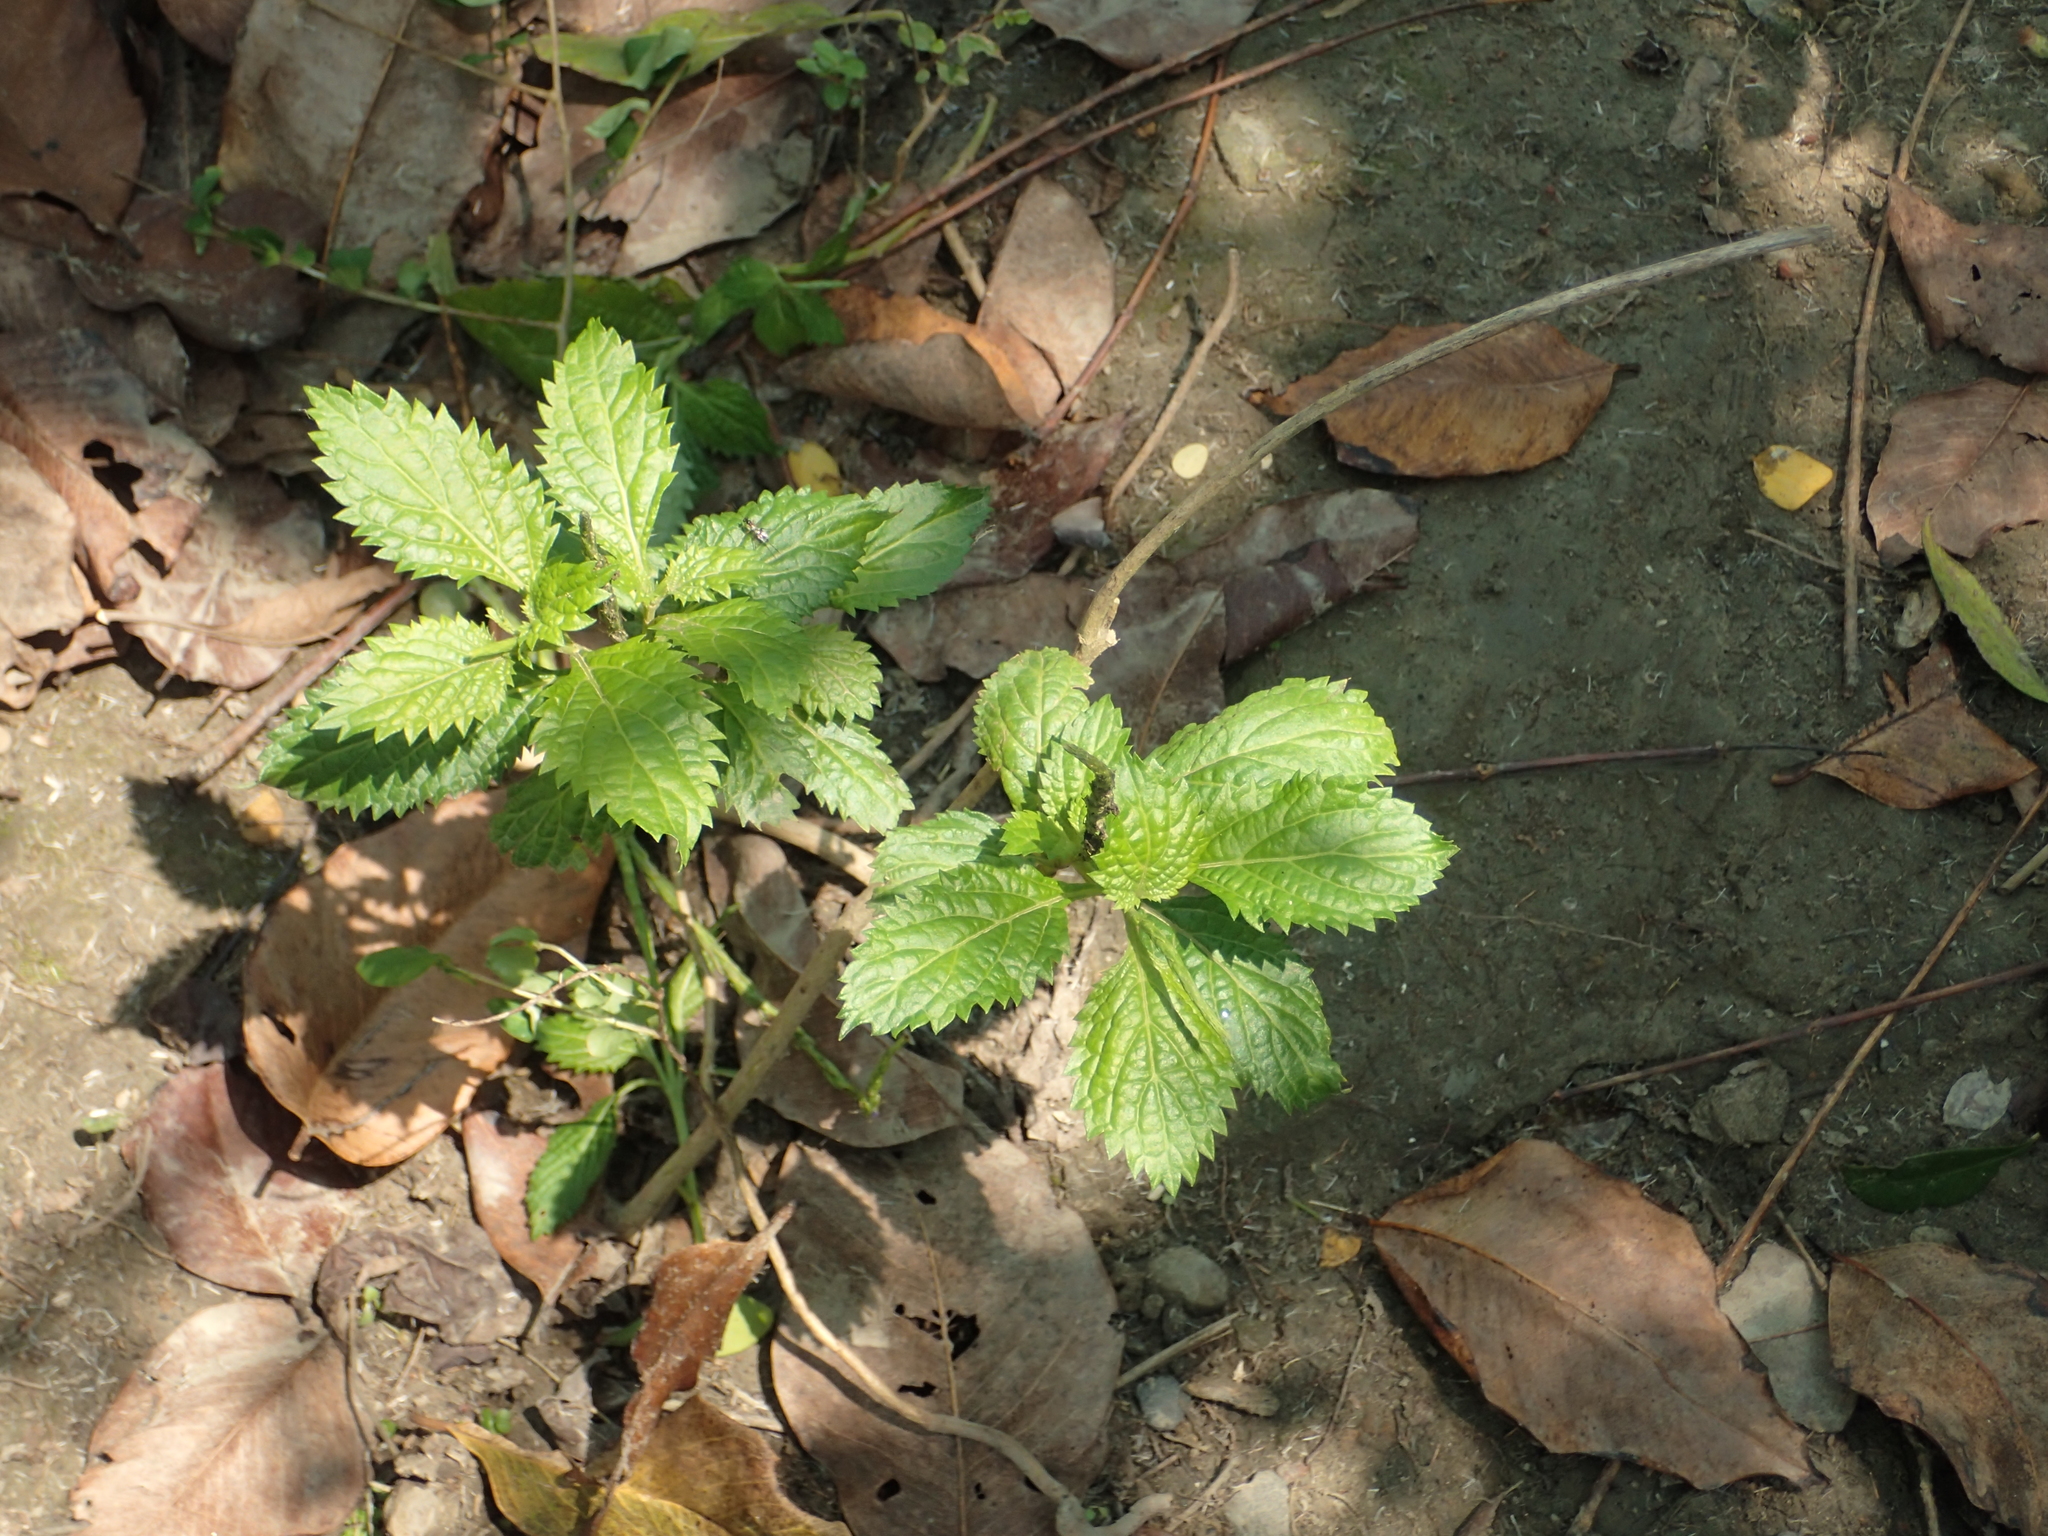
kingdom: Plantae
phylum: Tracheophyta
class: Magnoliopsida
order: Lamiales
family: Verbenaceae
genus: Stachytarpheta
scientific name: Stachytarpheta urticifolia
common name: Nettleleaf velvetberry
